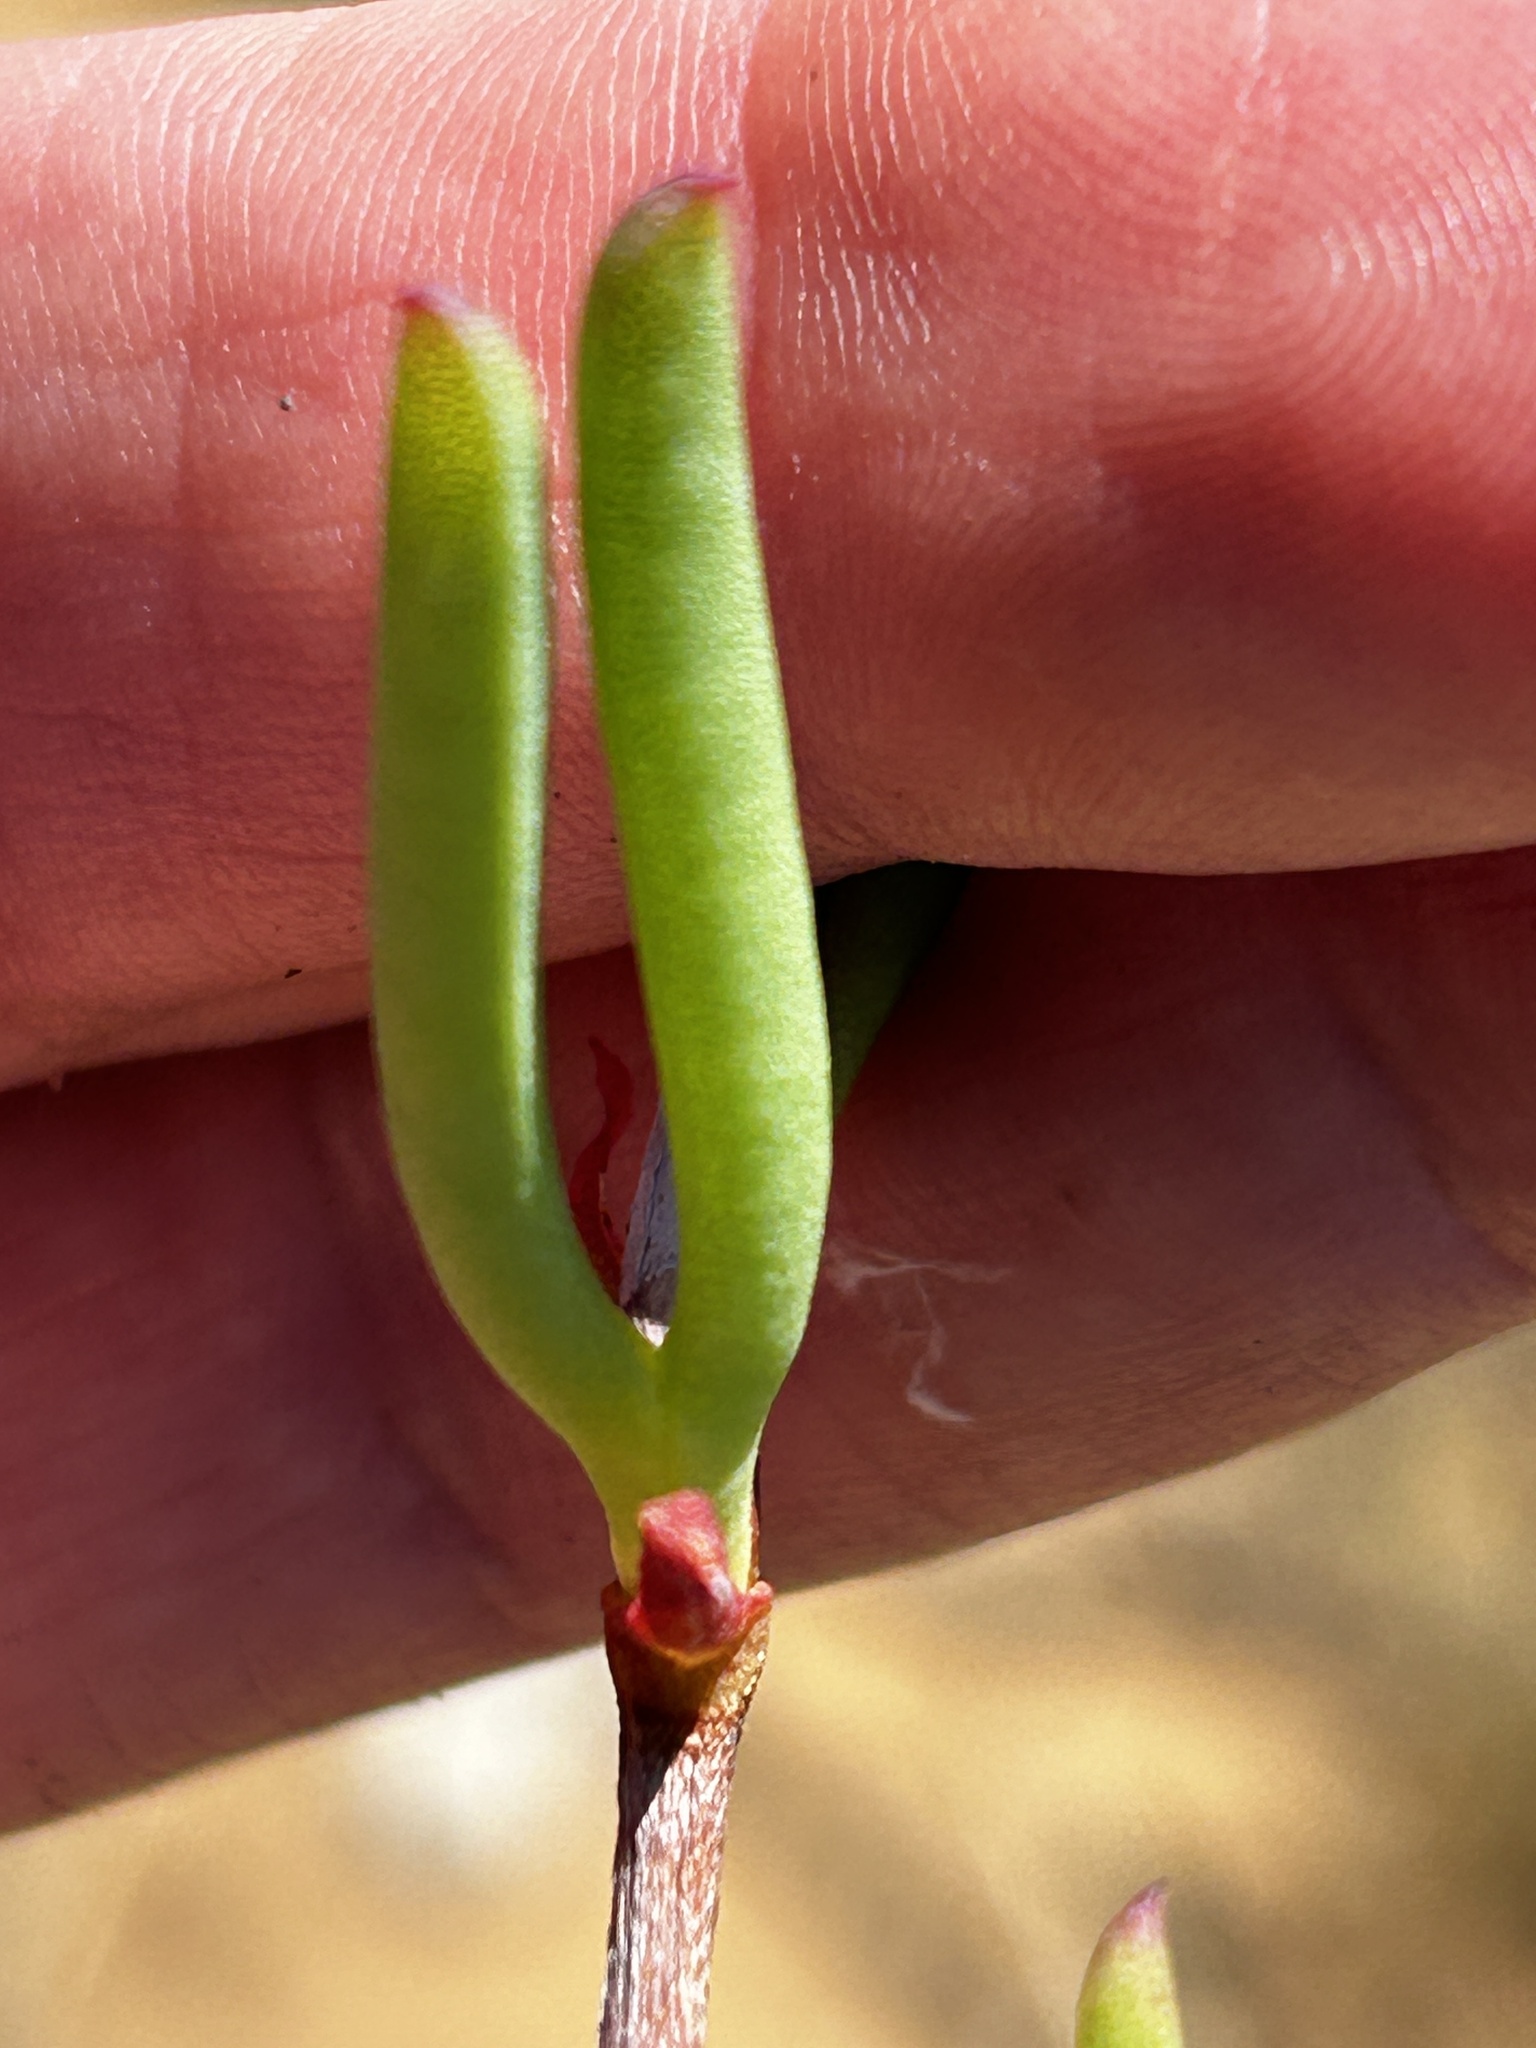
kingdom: Plantae
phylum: Tracheophyta
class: Magnoliopsida
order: Caryophyllales
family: Aizoaceae
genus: Ruschia
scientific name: Ruschia tumidula
